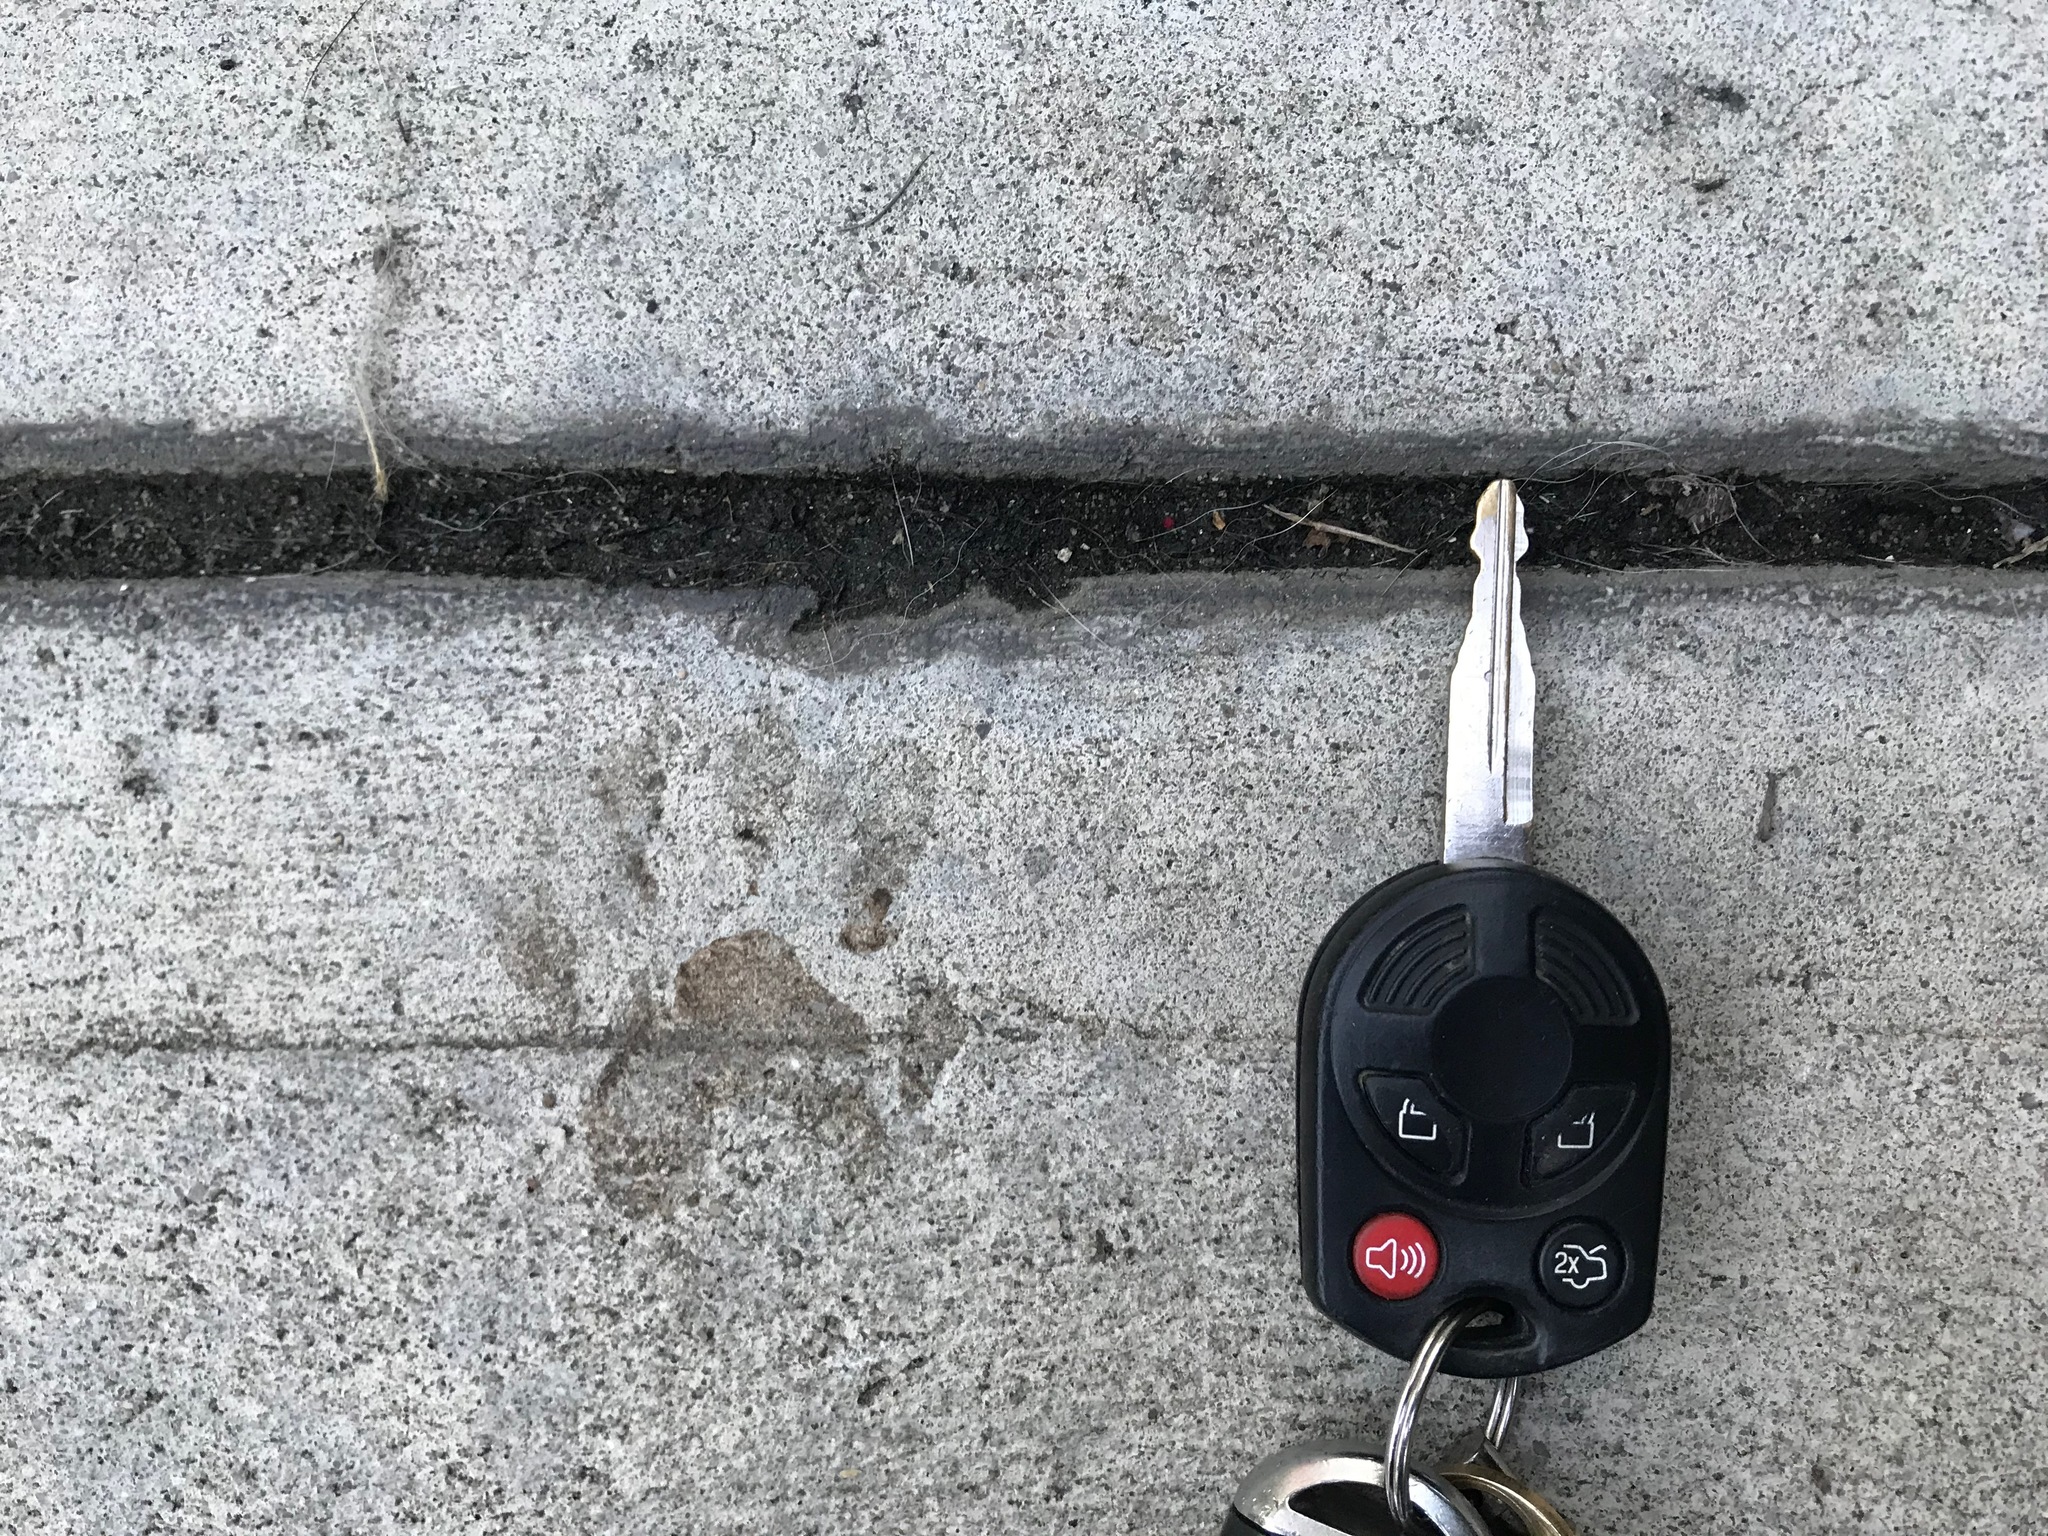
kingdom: Animalia
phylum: Chordata
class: Mammalia
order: Carnivora
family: Procyonidae
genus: Procyon
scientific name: Procyon lotor
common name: Raccoon
